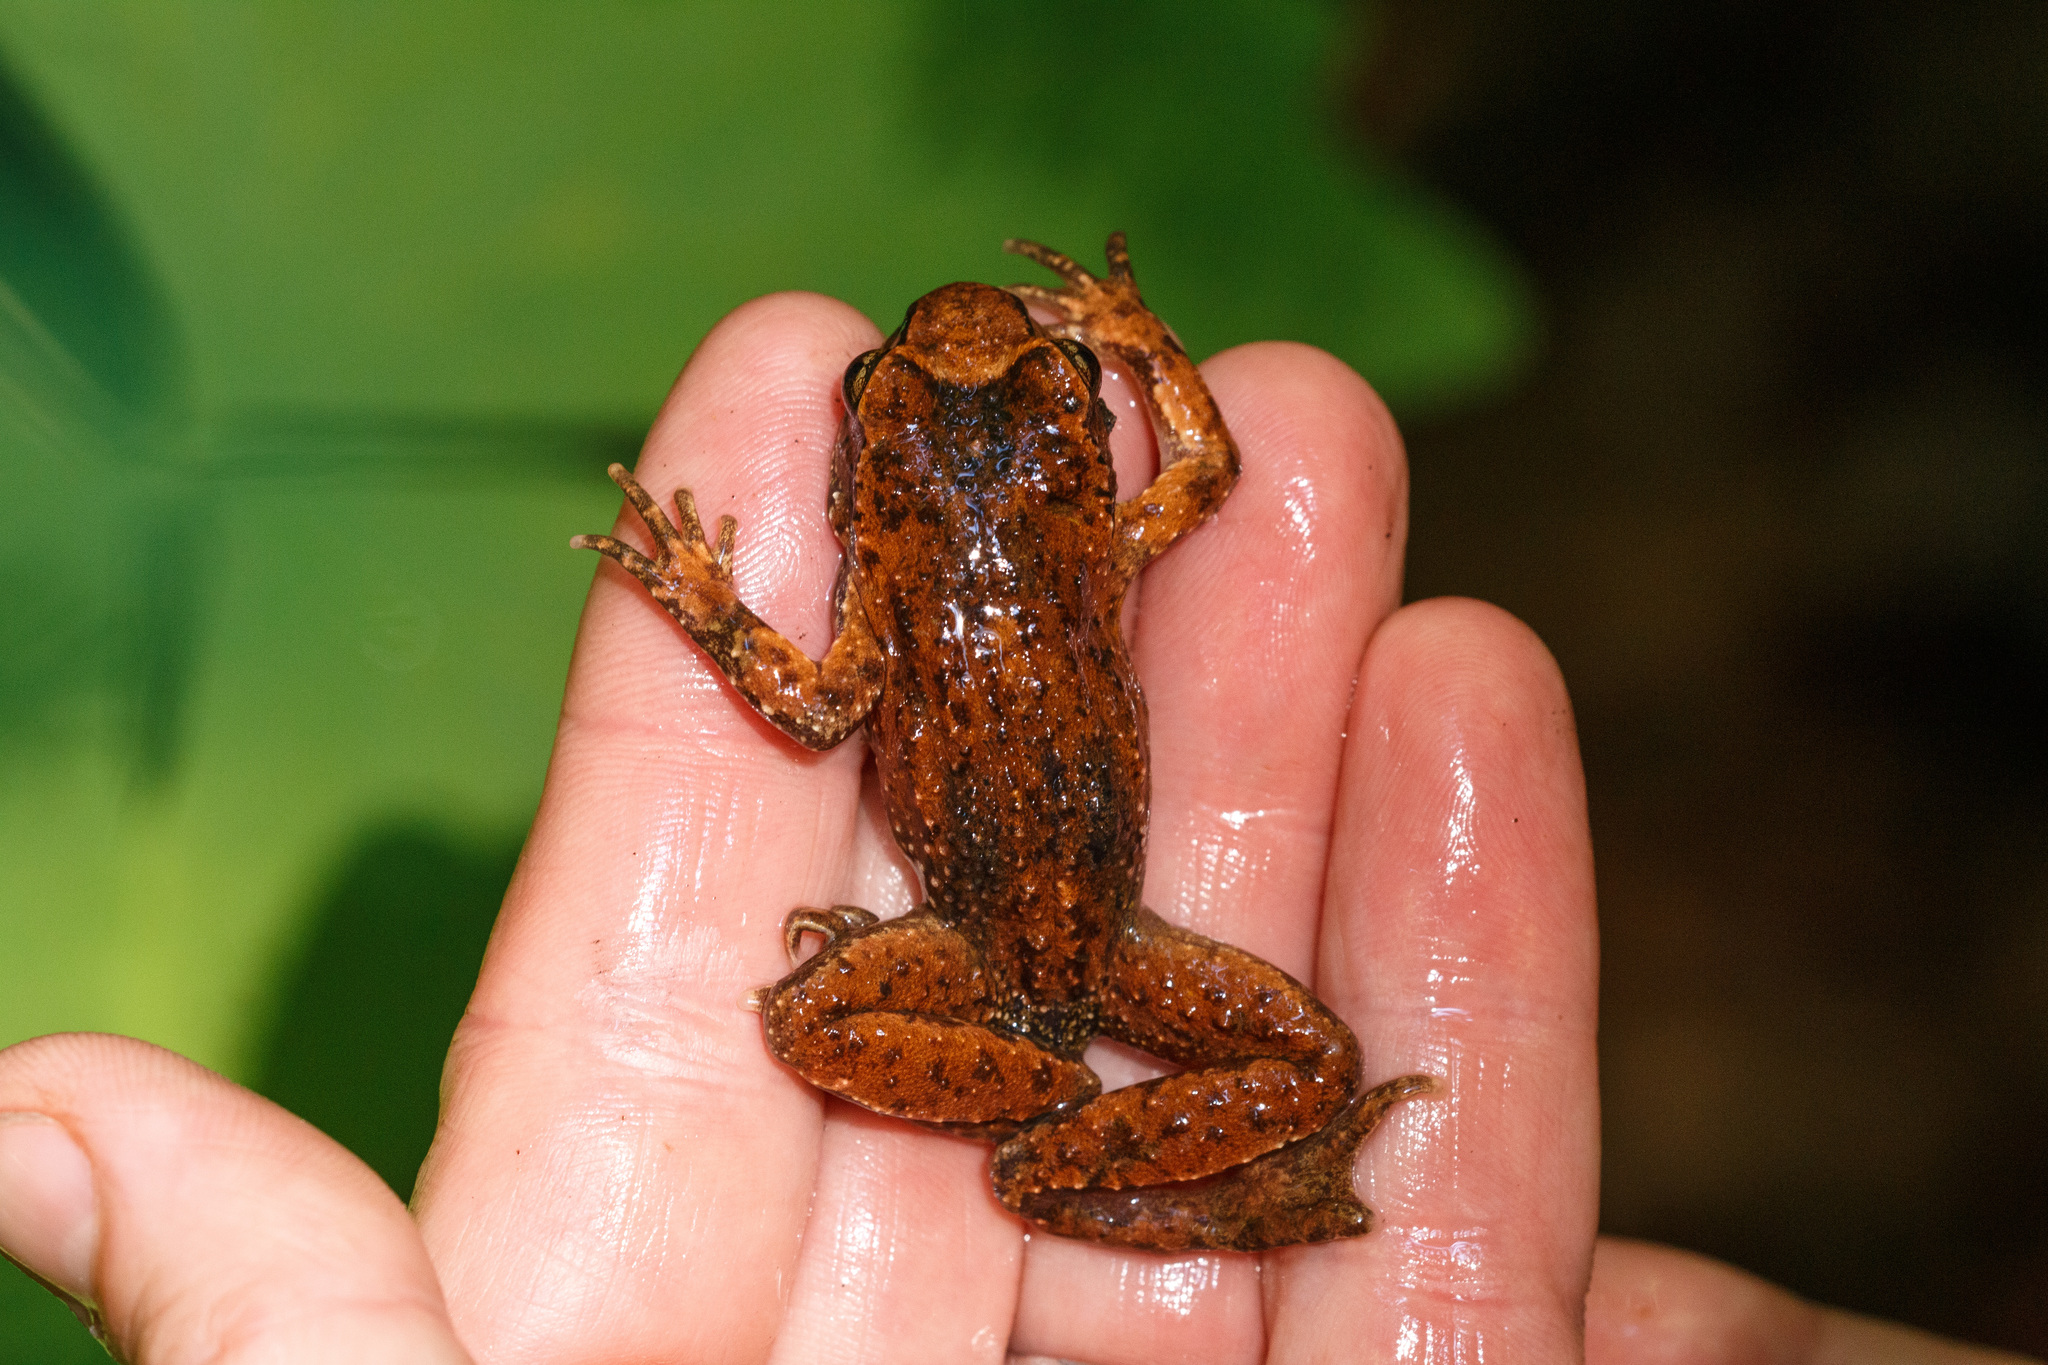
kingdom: Animalia
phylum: Chordata
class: Amphibia
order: Anura
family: Ascaphidae
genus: Ascaphus
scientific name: Ascaphus truei
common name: Tailed frog
